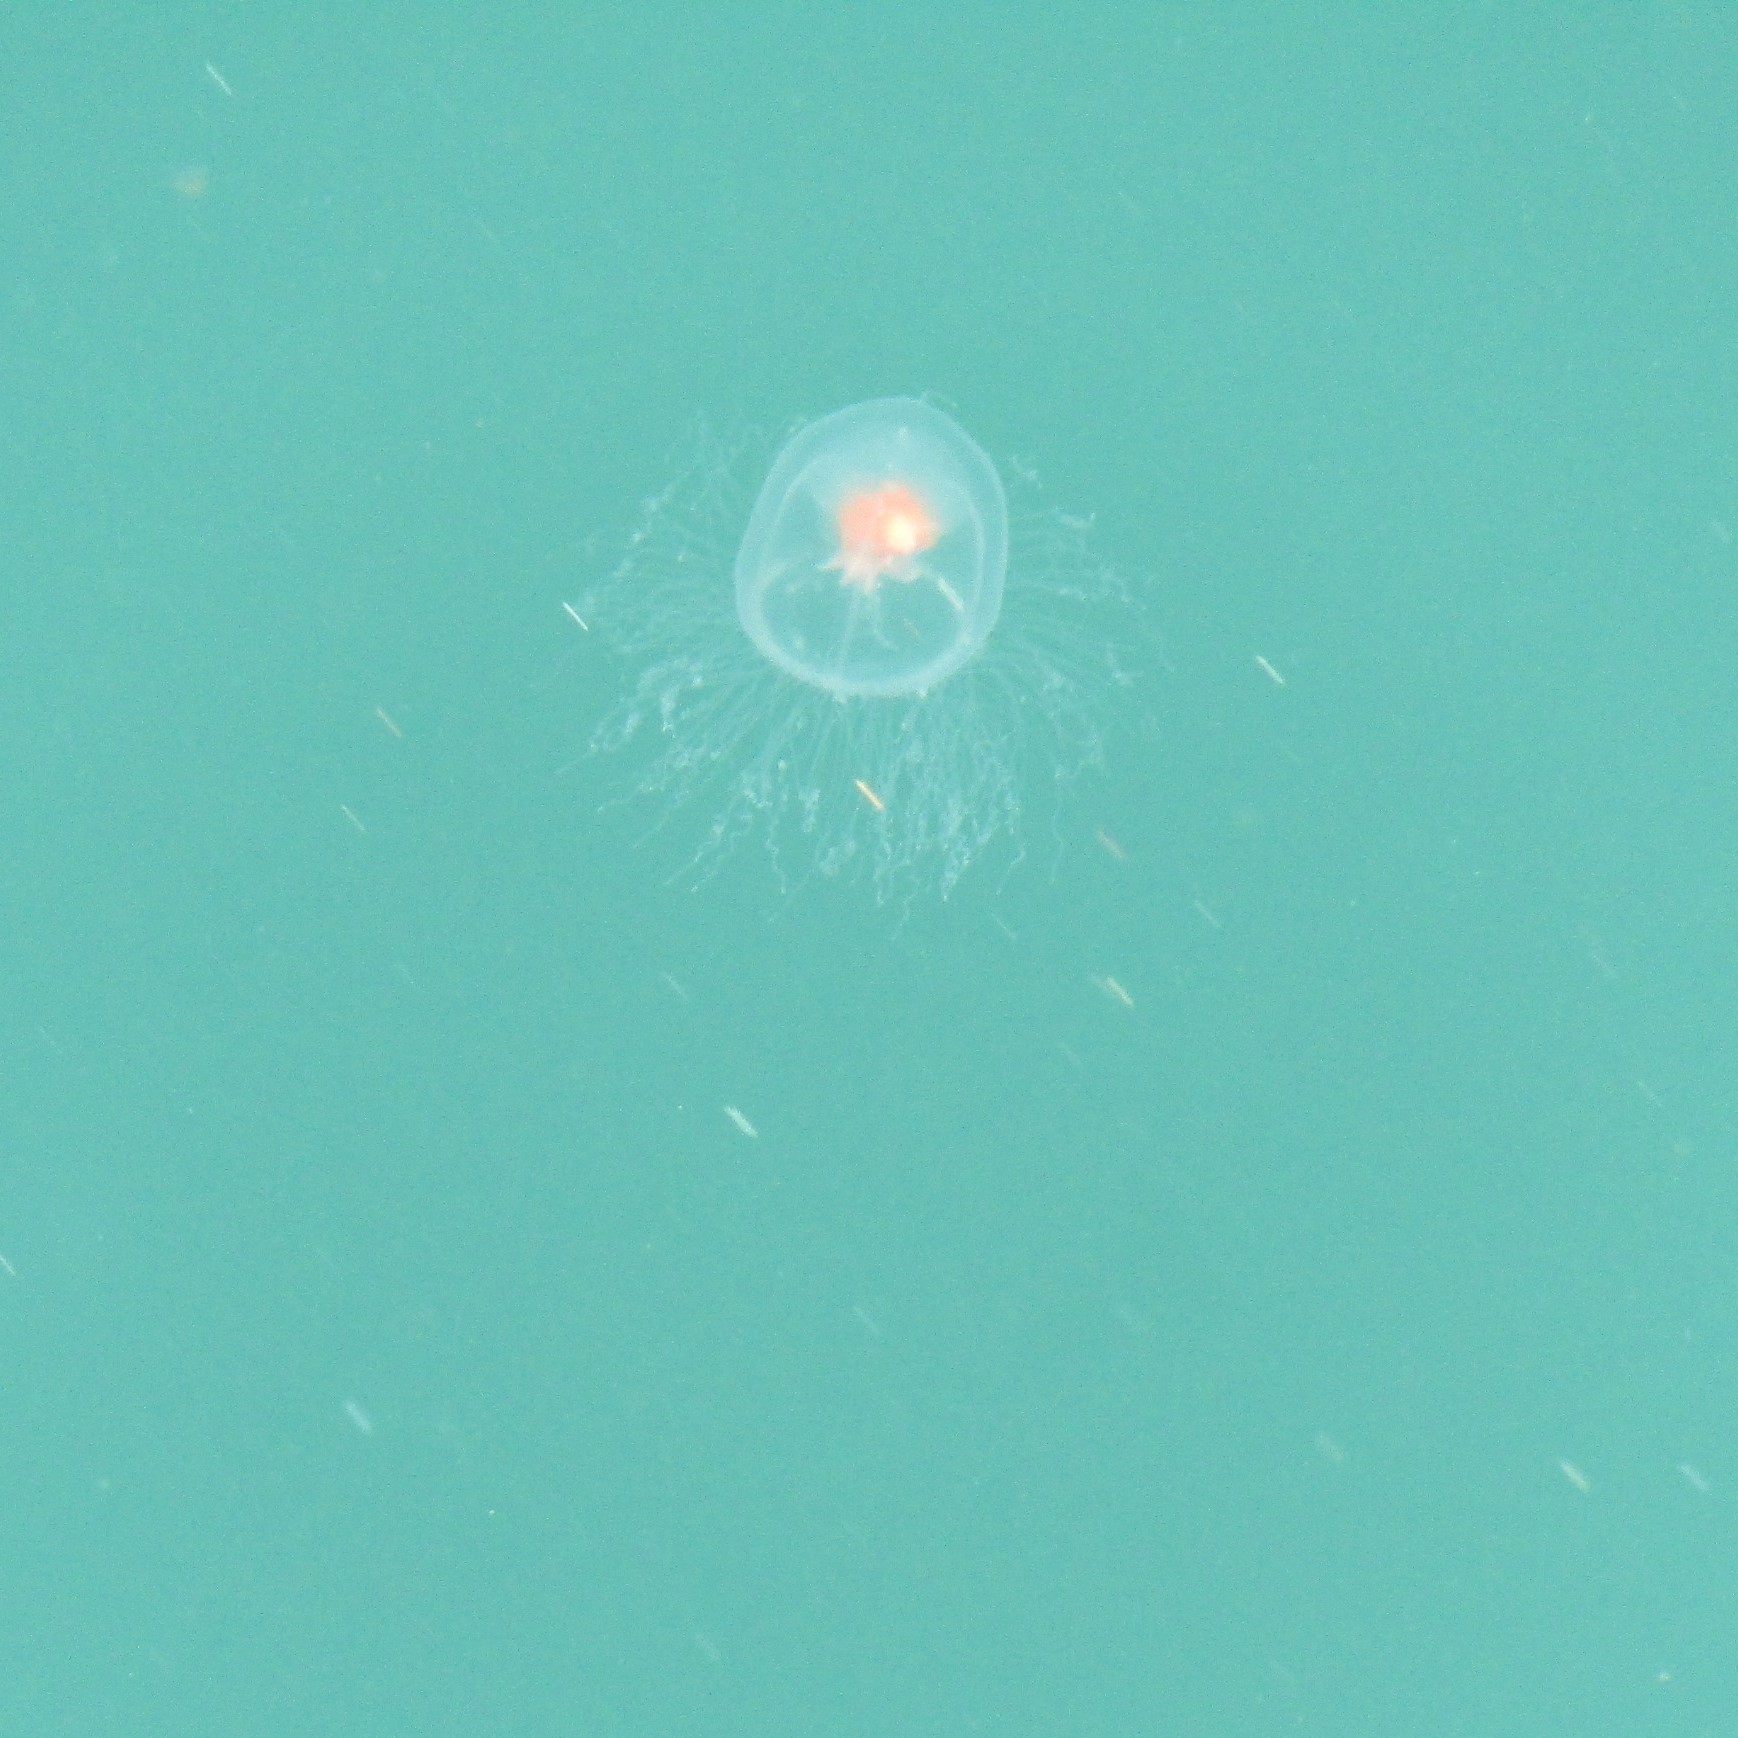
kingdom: Animalia
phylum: Cnidaria
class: Hydrozoa
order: Anthoathecata
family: Oceaniidae
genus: Turritopsis
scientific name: Turritopsis rubra
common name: Crimson jelly
